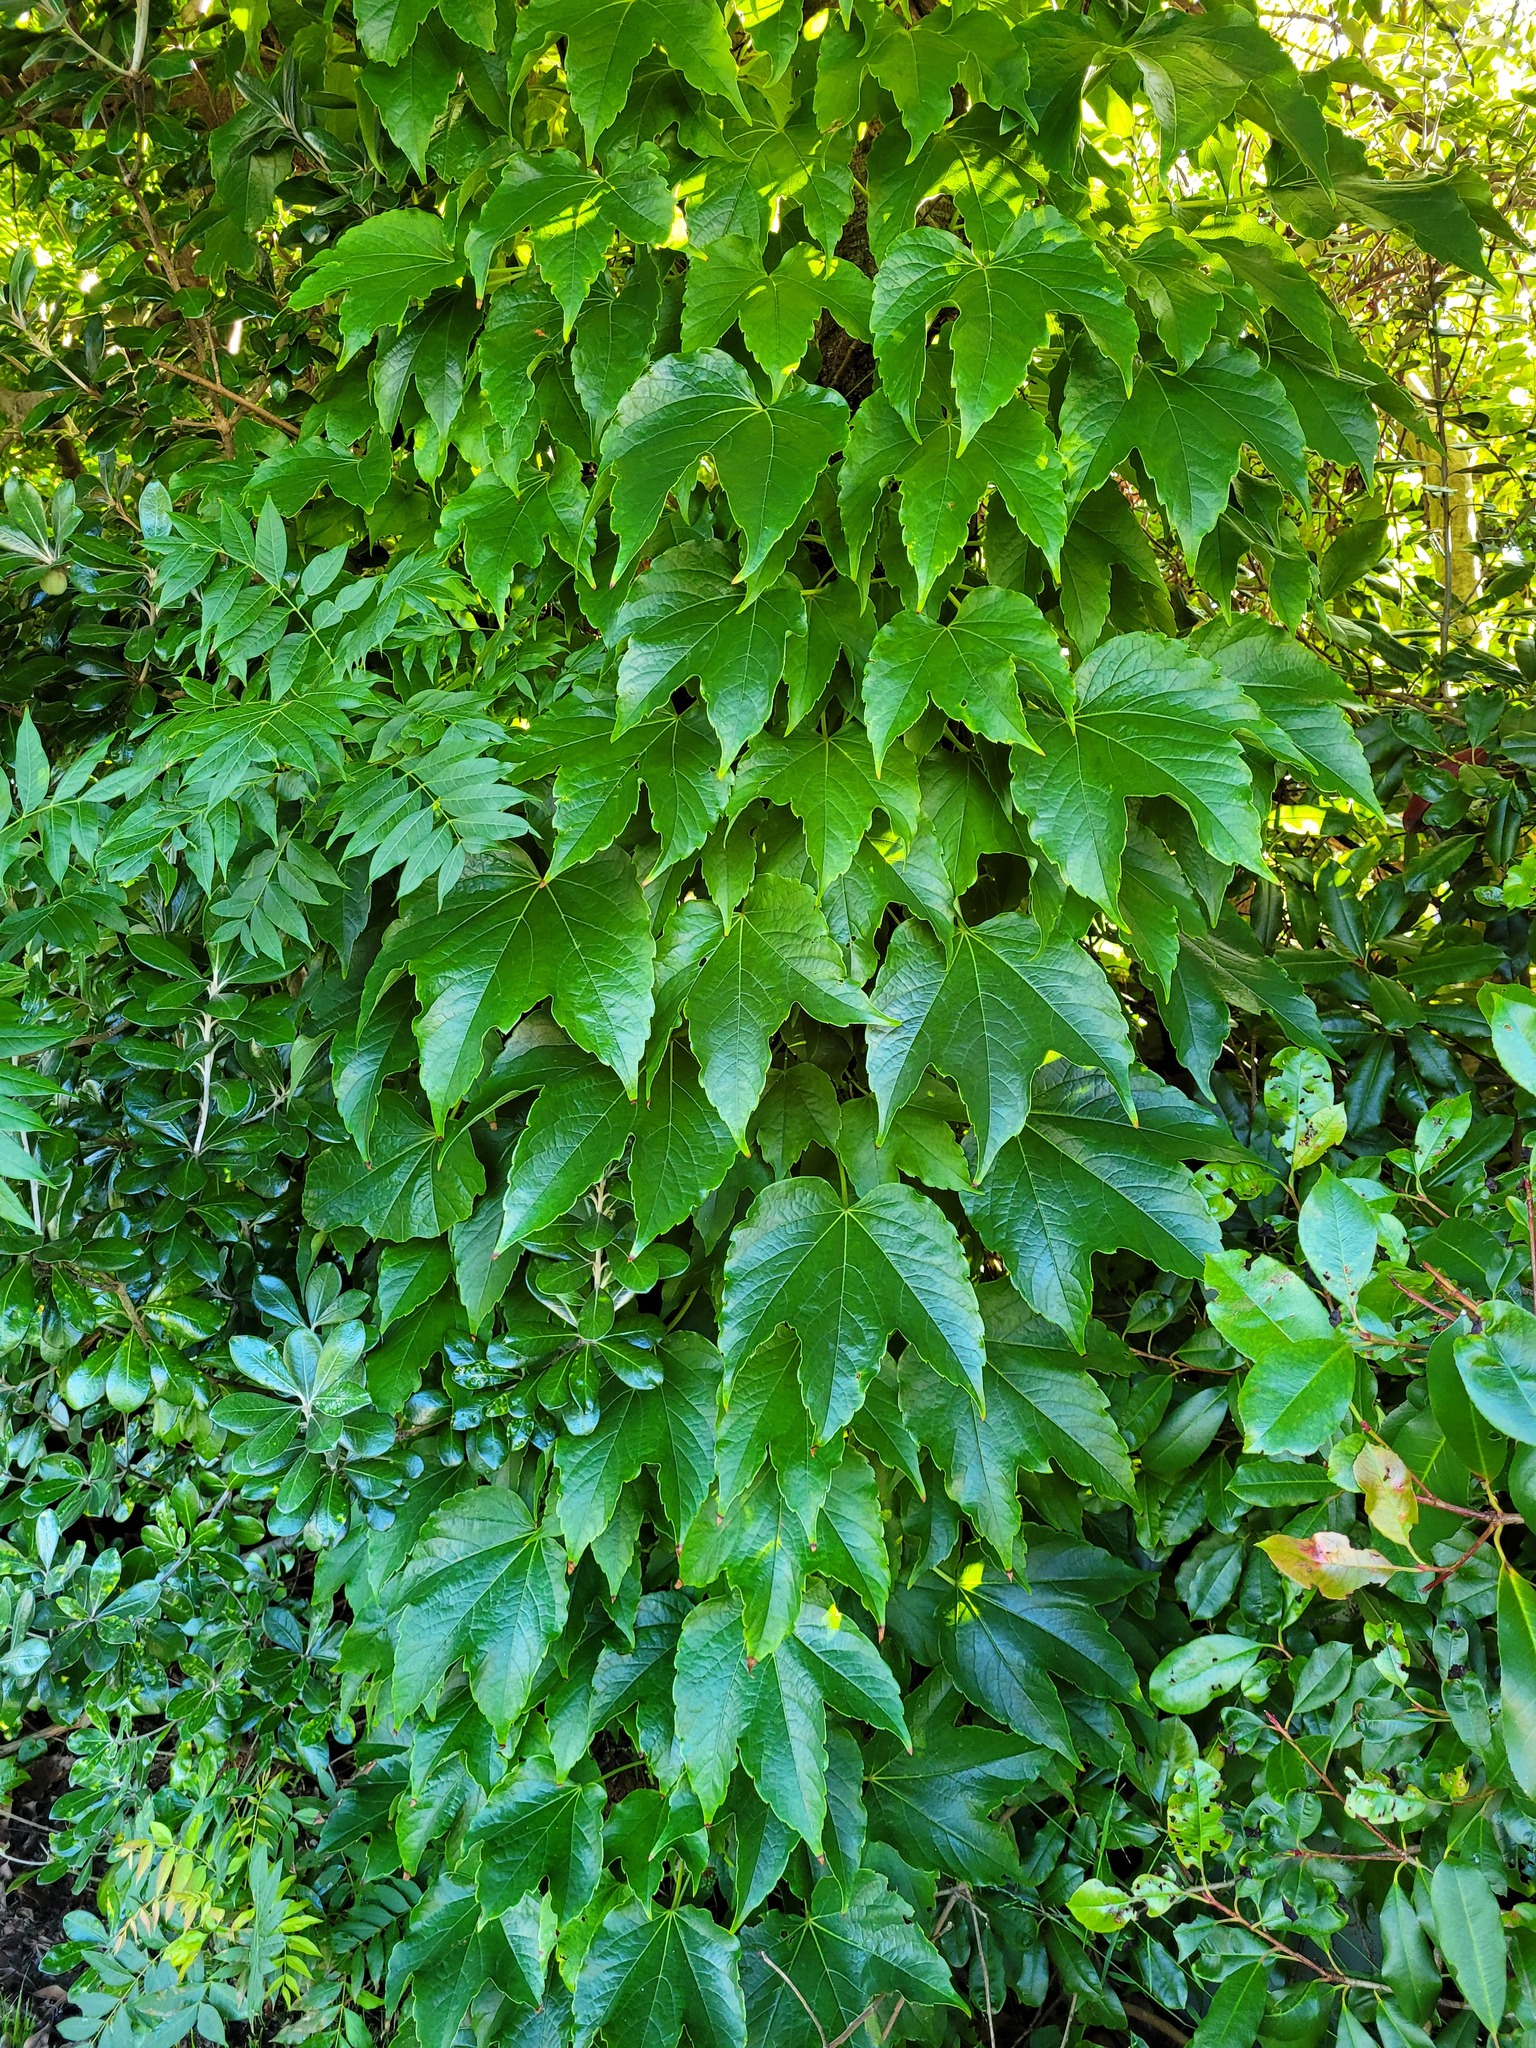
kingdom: Plantae
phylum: Tracheophyta
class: Magnoliopsida
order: Vitales
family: Vitaceae
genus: Parthenocissus
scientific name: Parthenocissus tricuspidata
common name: Boston ivy
